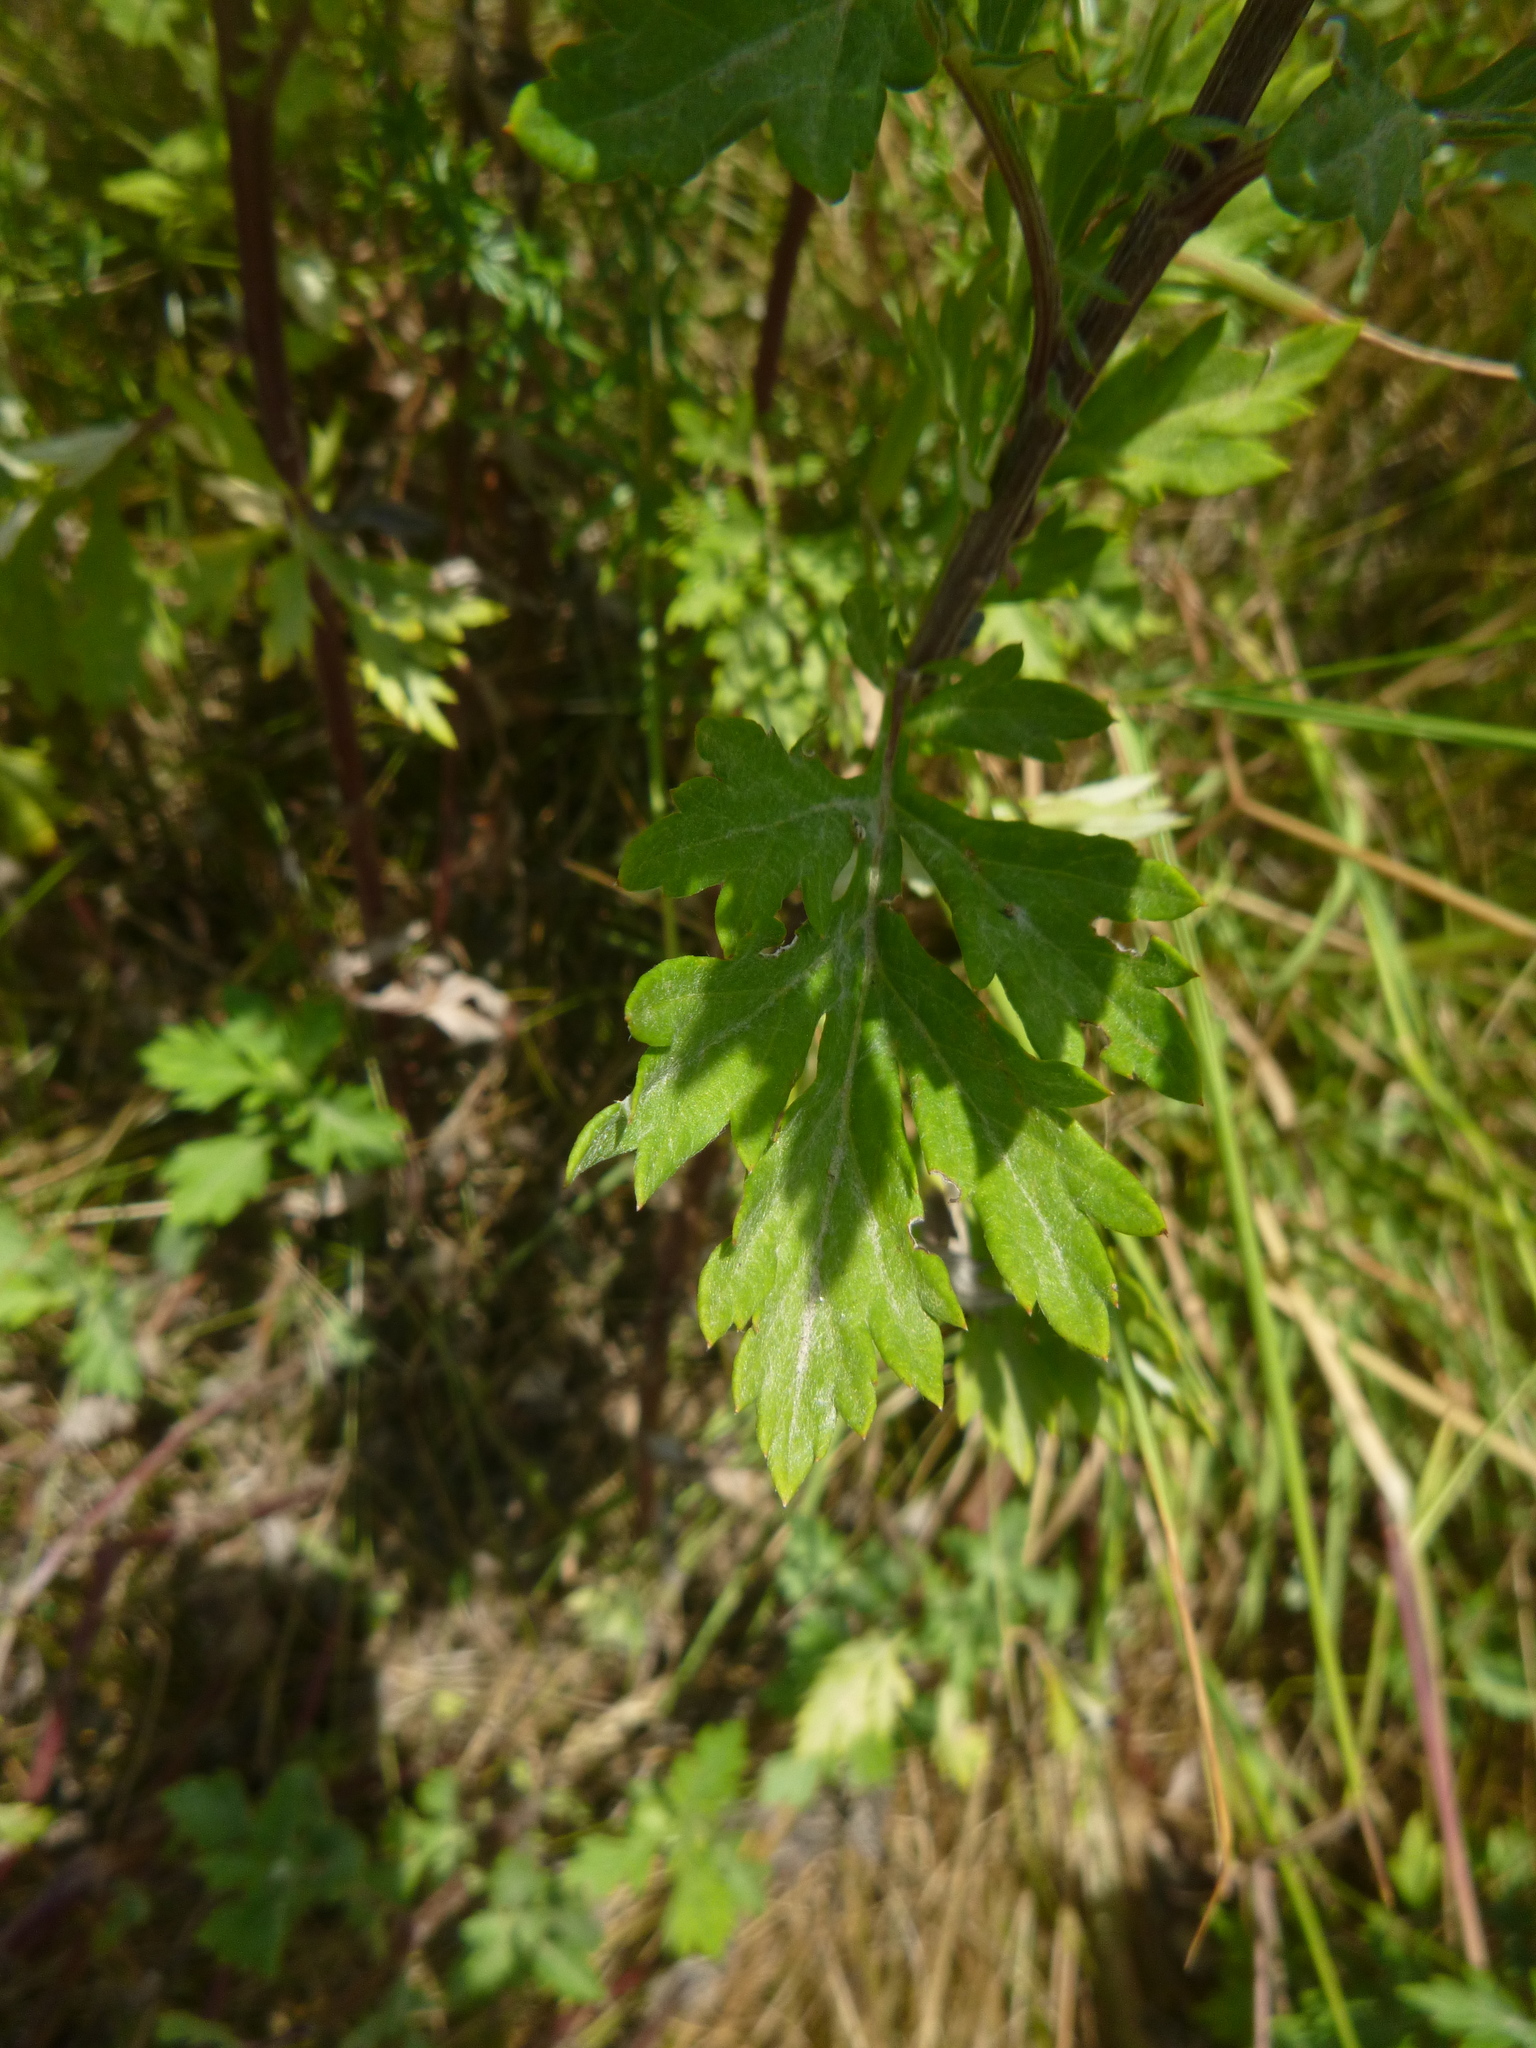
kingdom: Plantae
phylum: Tracheophyta
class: Magnoliopsida
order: Asterales
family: Asteraceae
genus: Artemisia
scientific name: Artemisia vulgaris
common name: Mugwort
